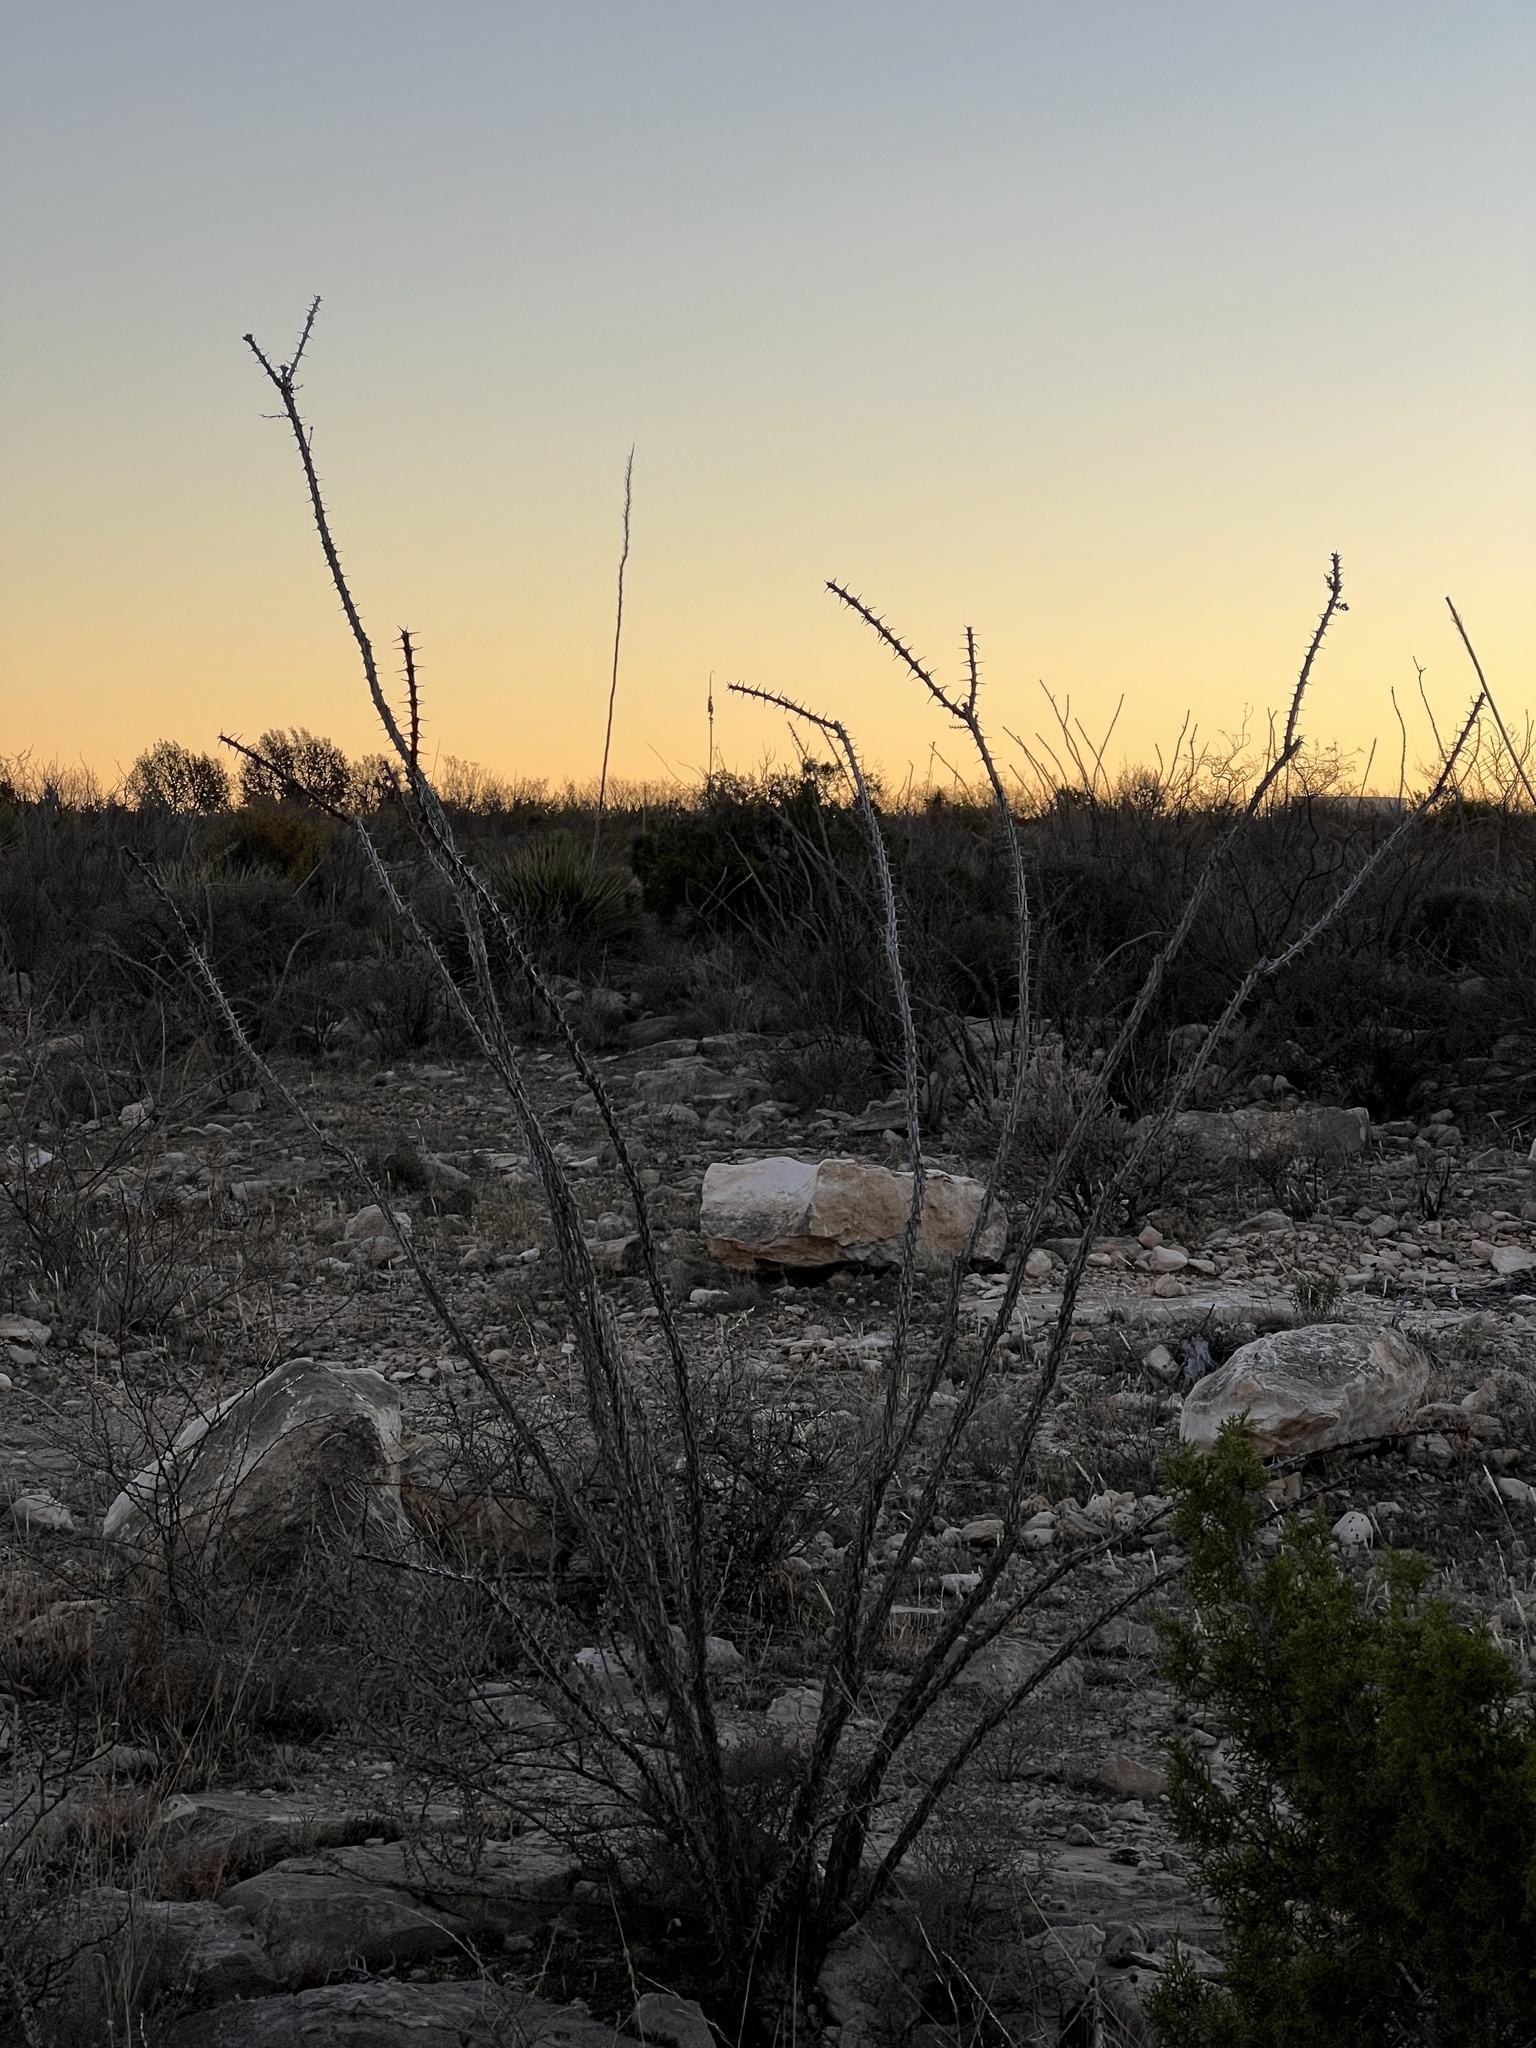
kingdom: Plantae
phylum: Tracheophyta
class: Magnoliopsida
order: Ericales
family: Fouquieriaceae
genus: Fouquieria
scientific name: Fouquieria splendens
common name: Vine-cactus
